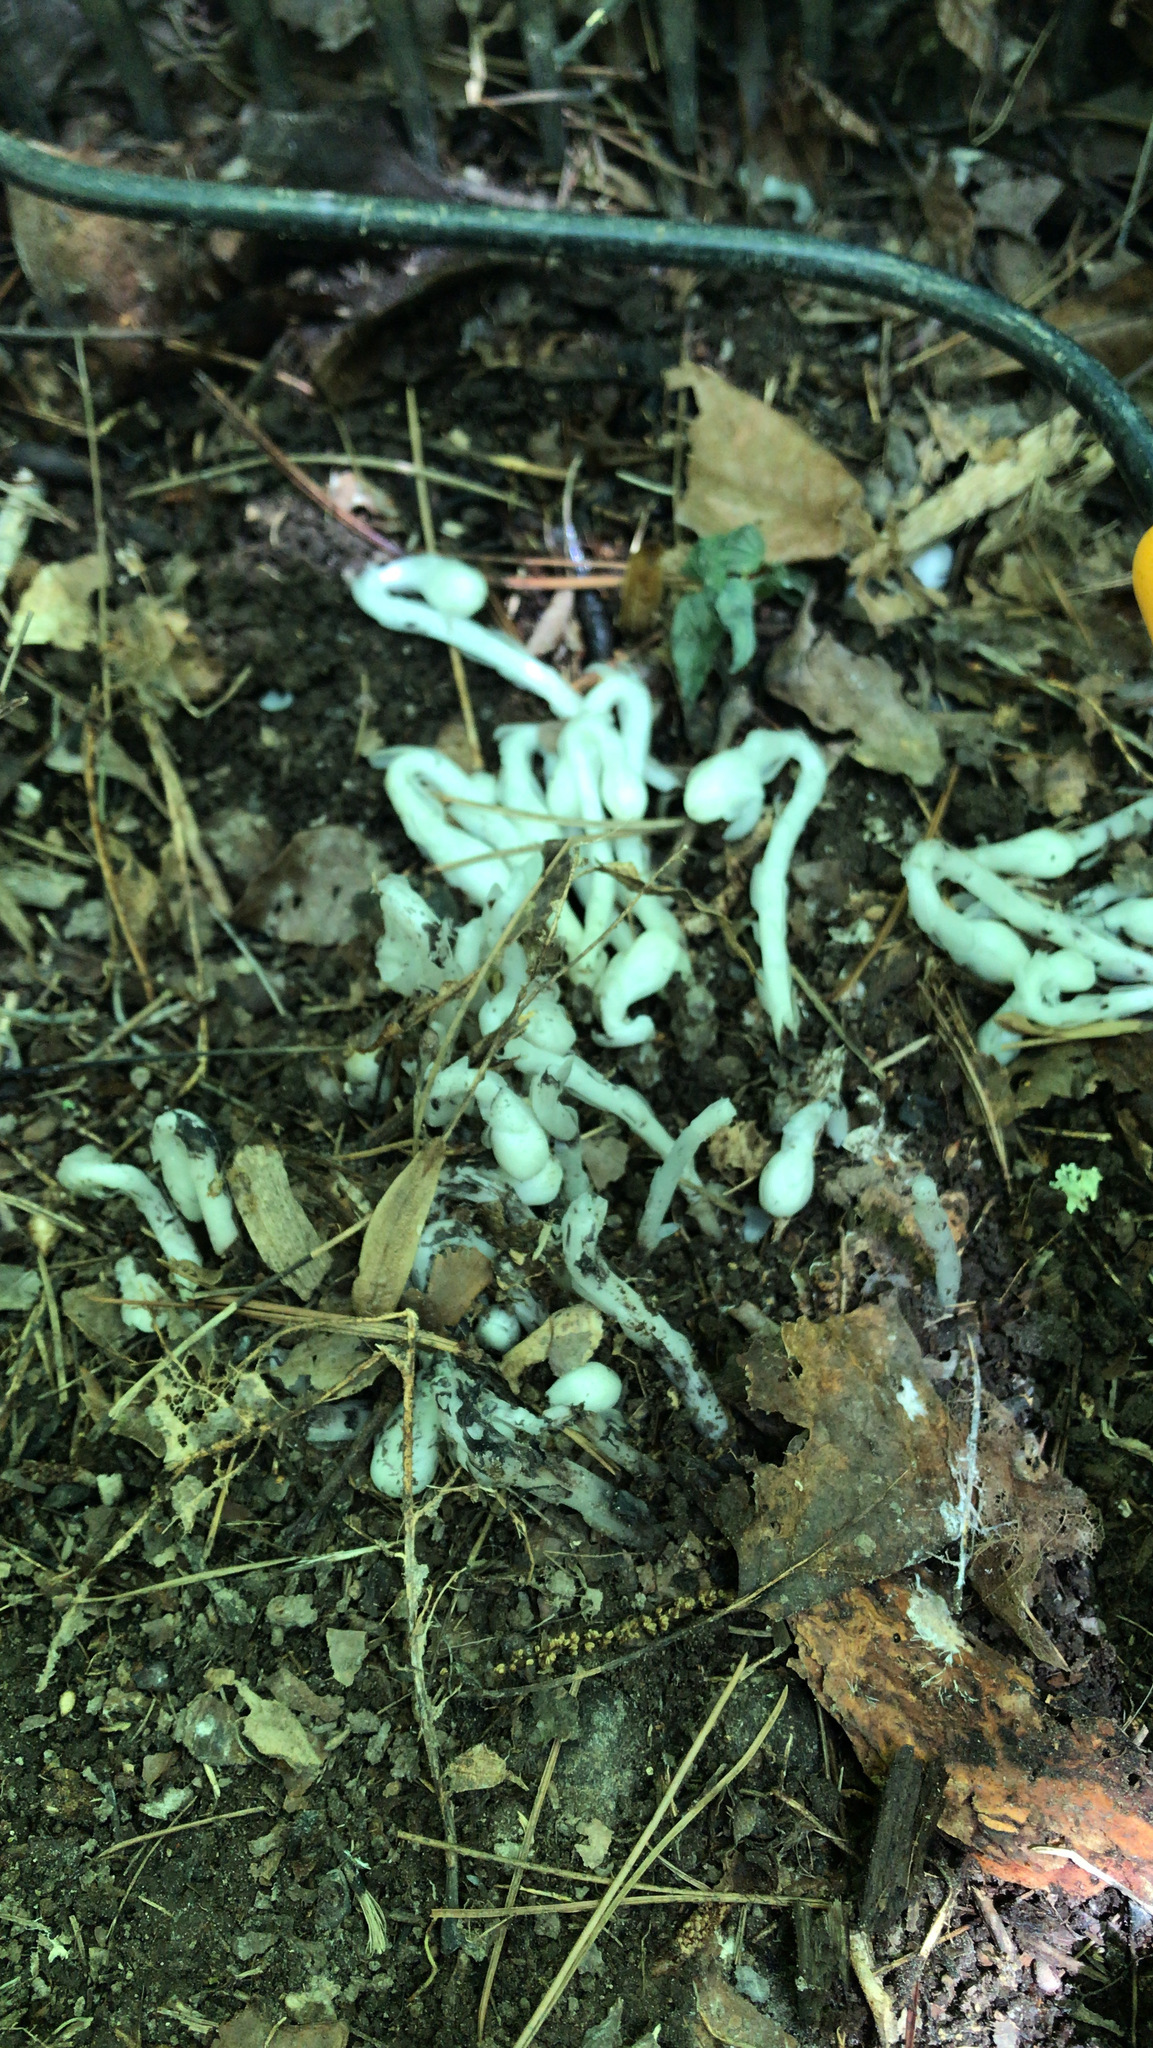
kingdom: Plantae
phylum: Tracheophyta
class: Magnoliopsida
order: Ericales
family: Ericaceae
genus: Monotropa
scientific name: Monotropa uniflora
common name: Convulsion root
